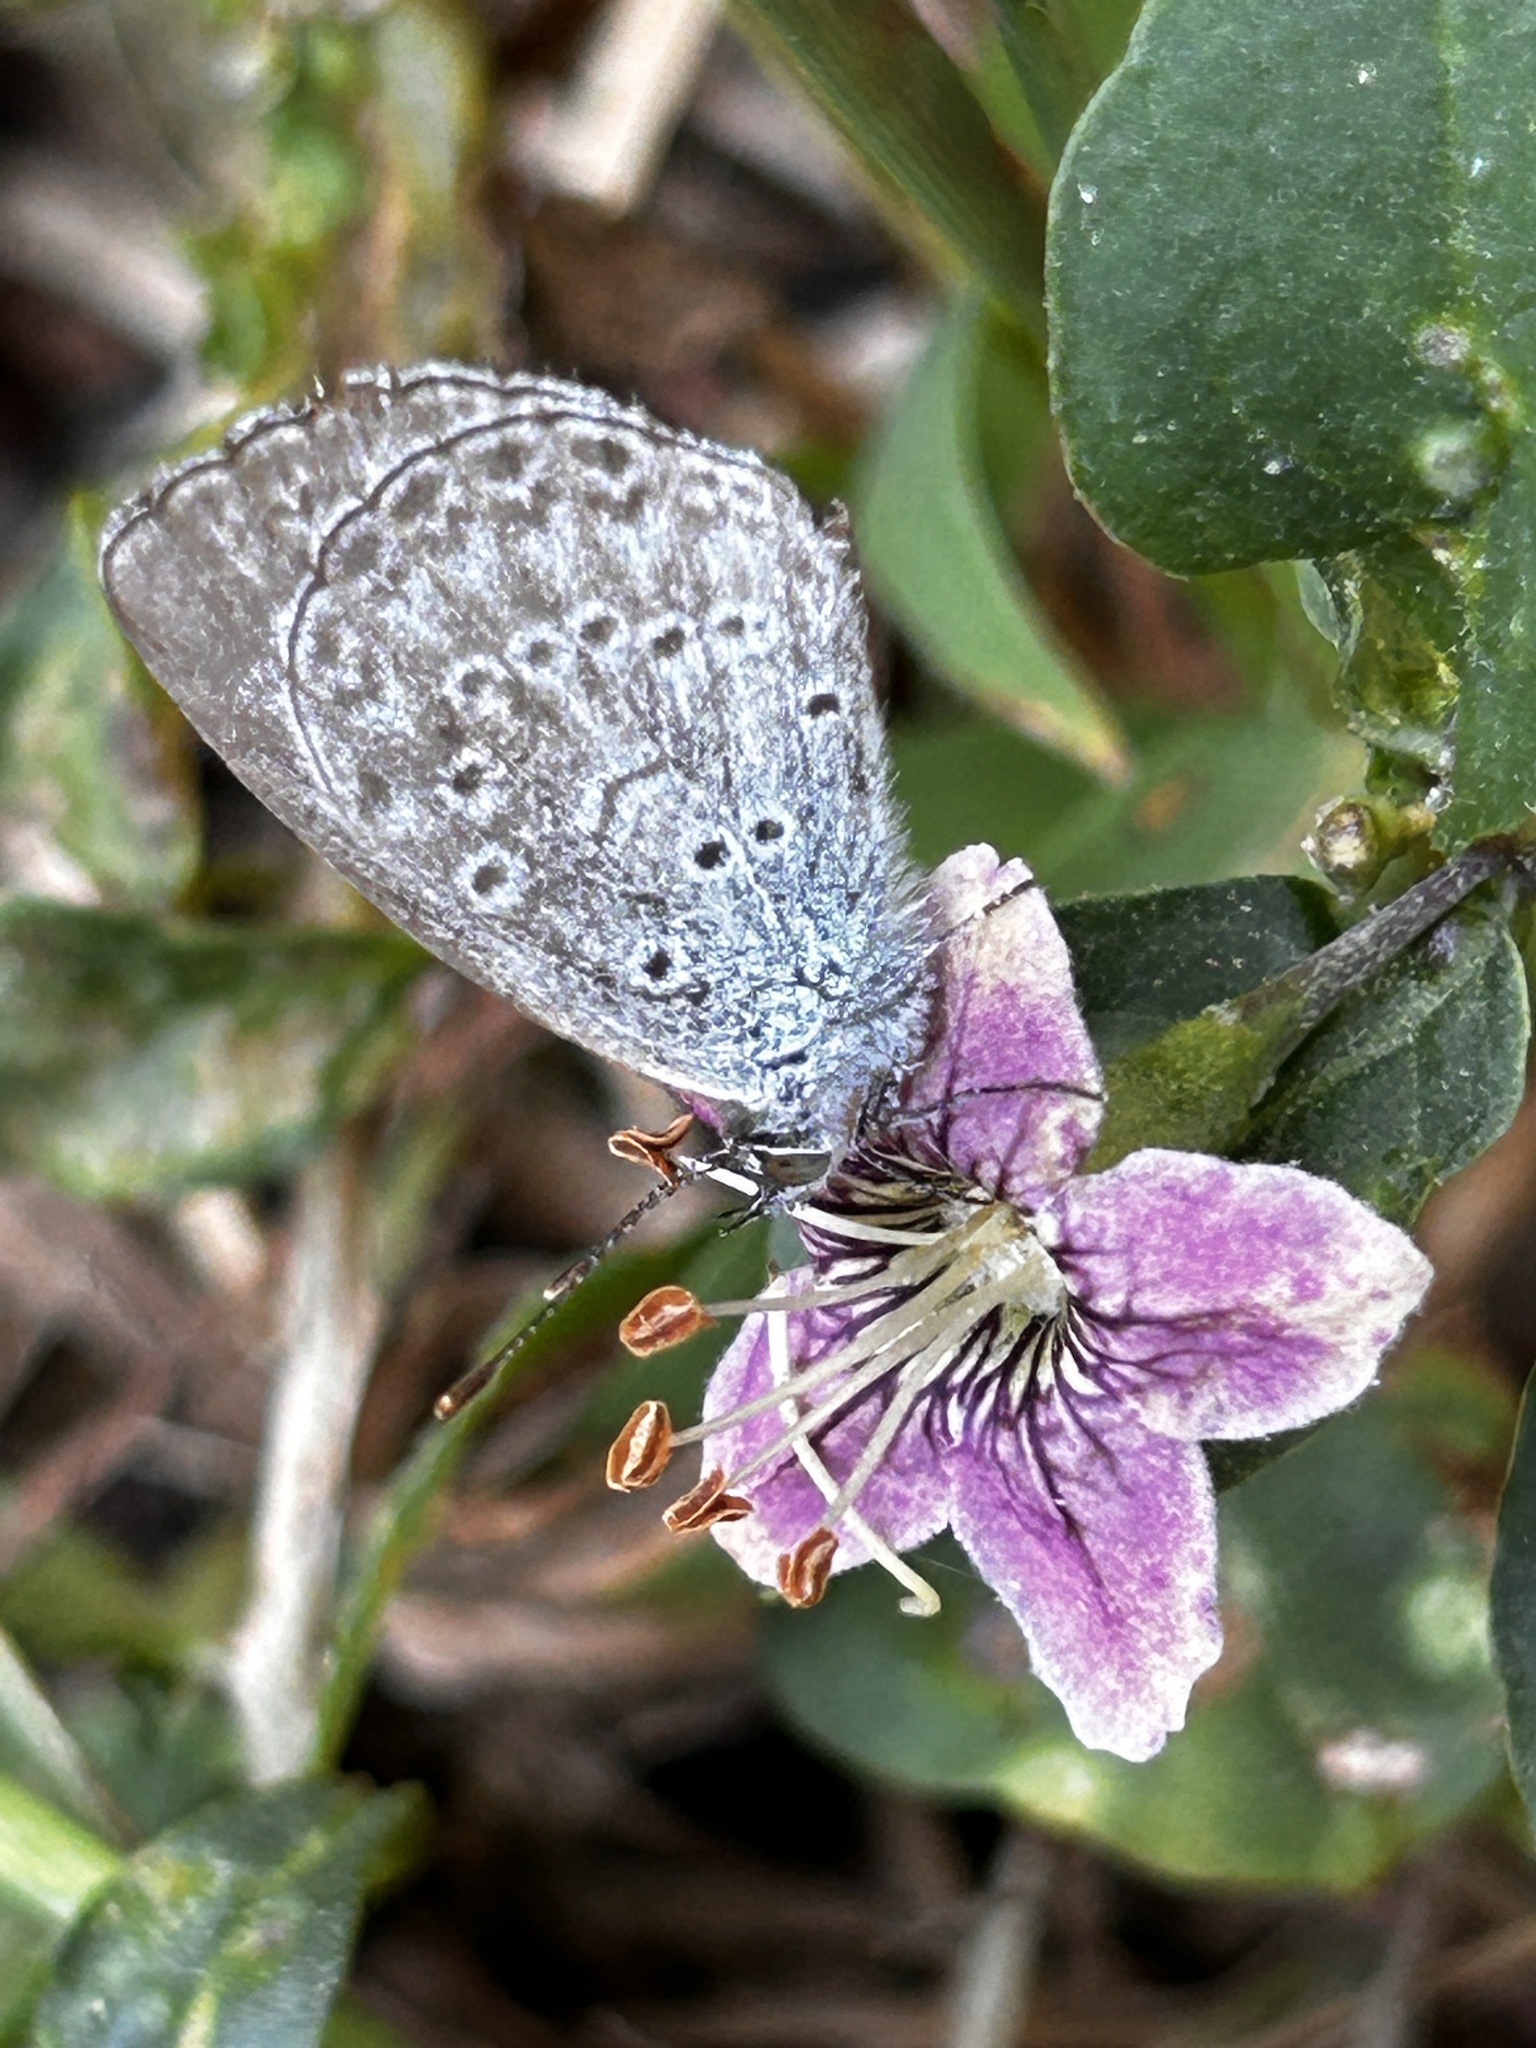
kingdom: Animalia
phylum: Arthropoda
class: Insecta
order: Lepidoptera
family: Lycaenidae
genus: Pseudozizeeria
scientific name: Pseudozizeeria maha
